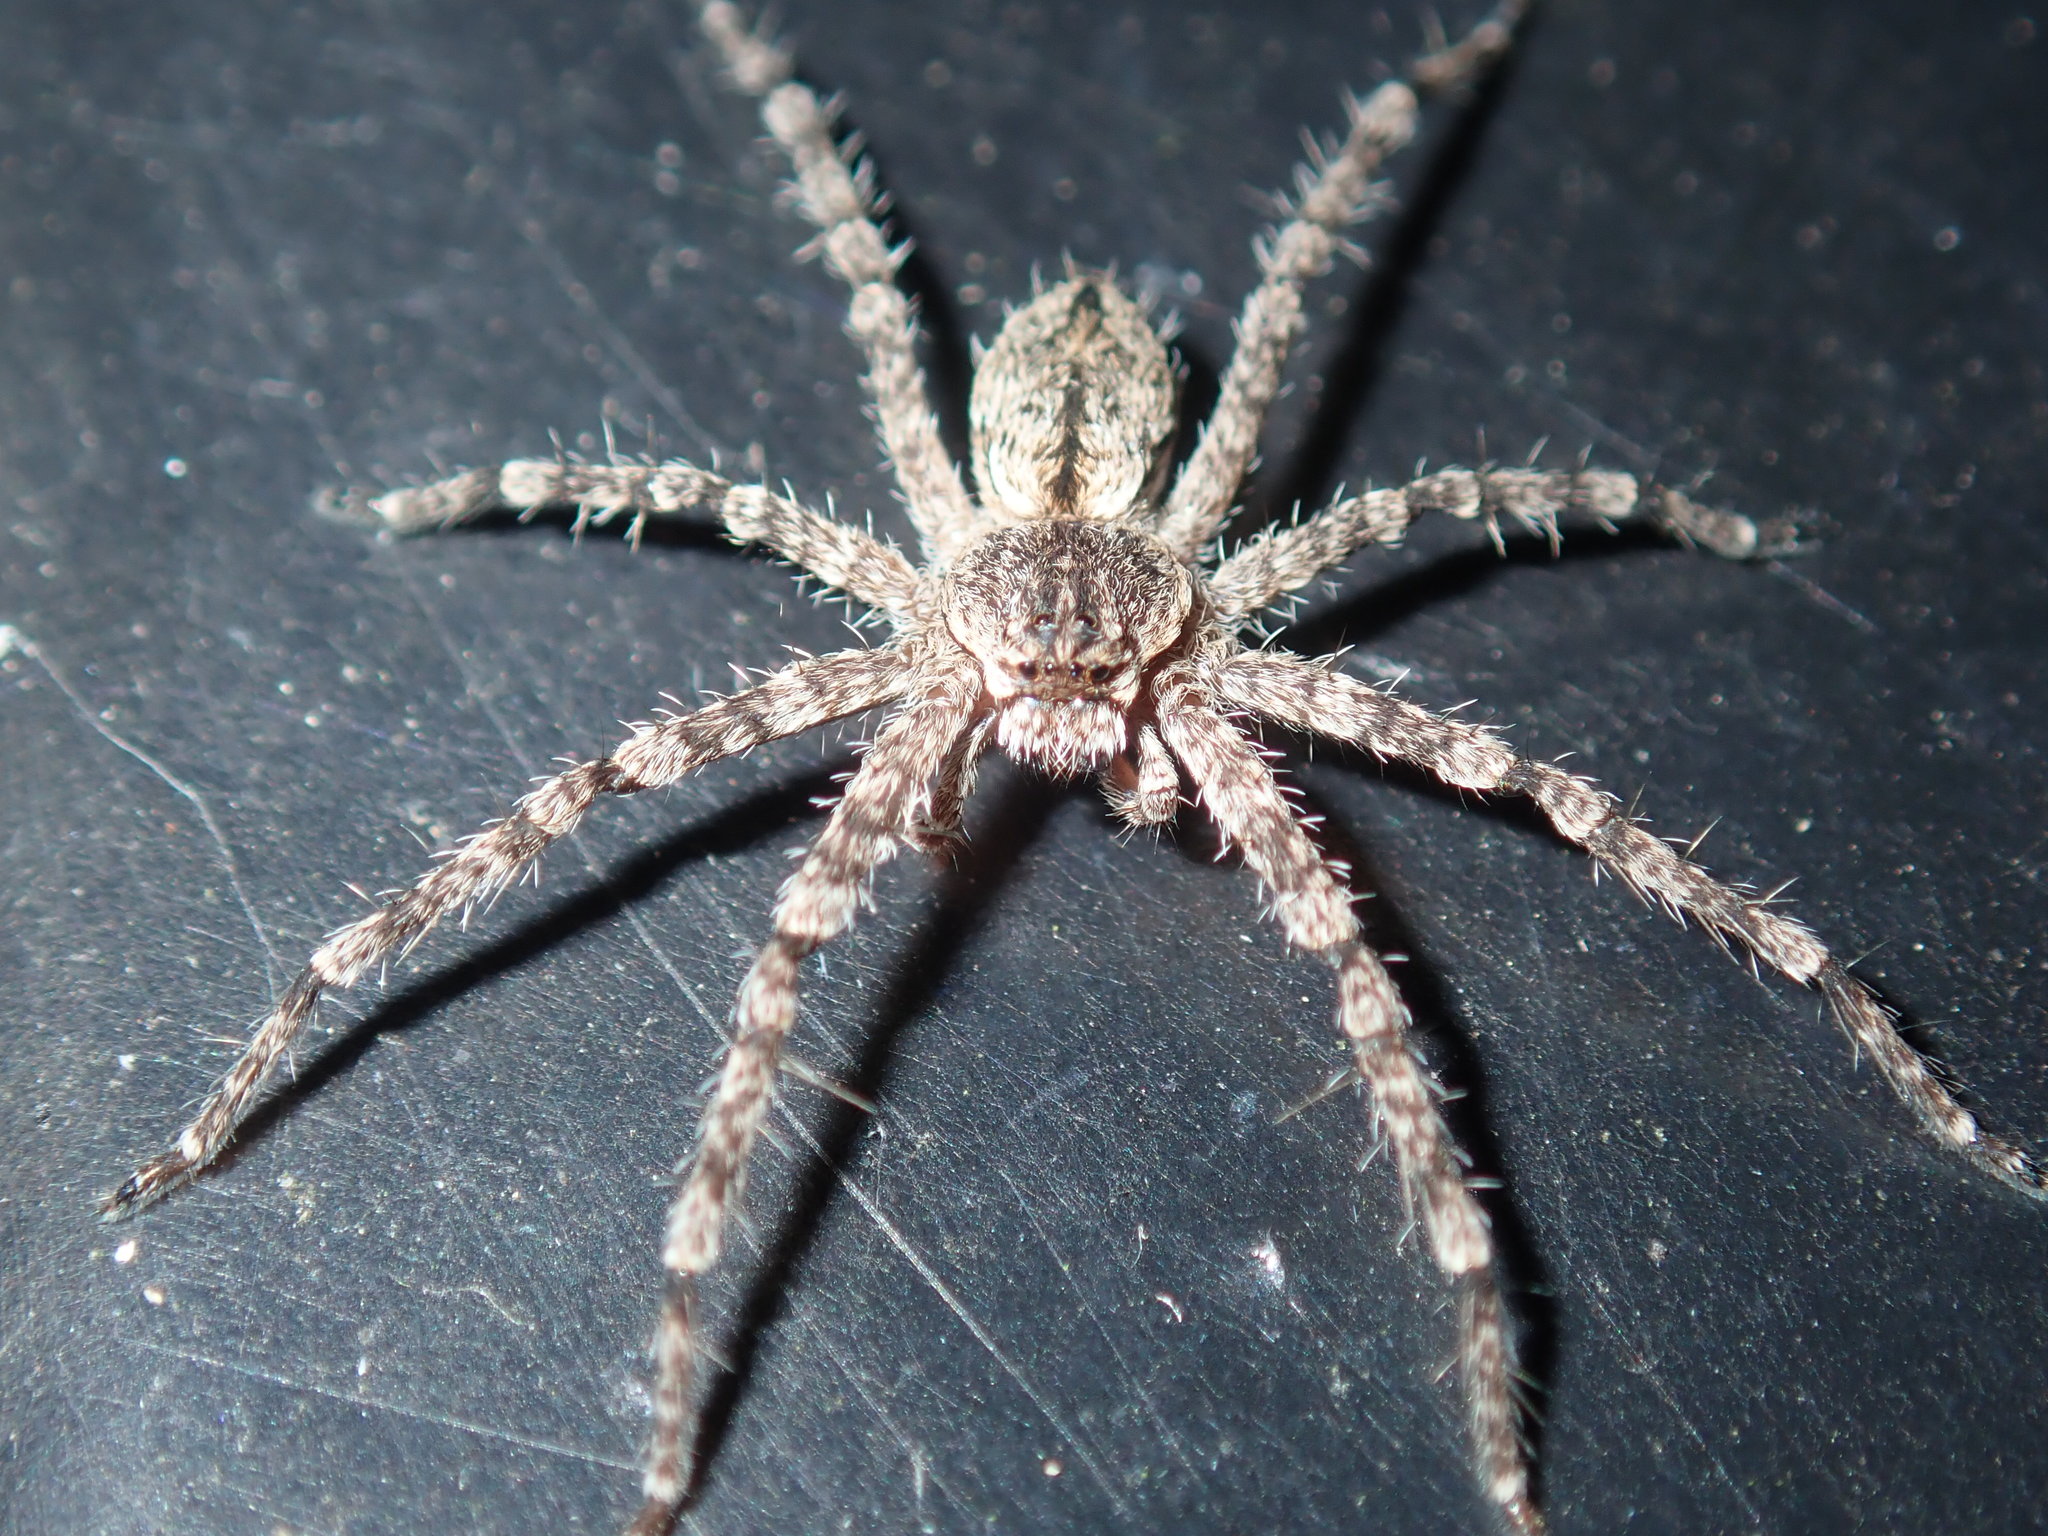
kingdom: Animalia
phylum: Arthropoda
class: Arachnida
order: Araneae
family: Sparassidae
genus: Pediana
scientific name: Pediana regina
